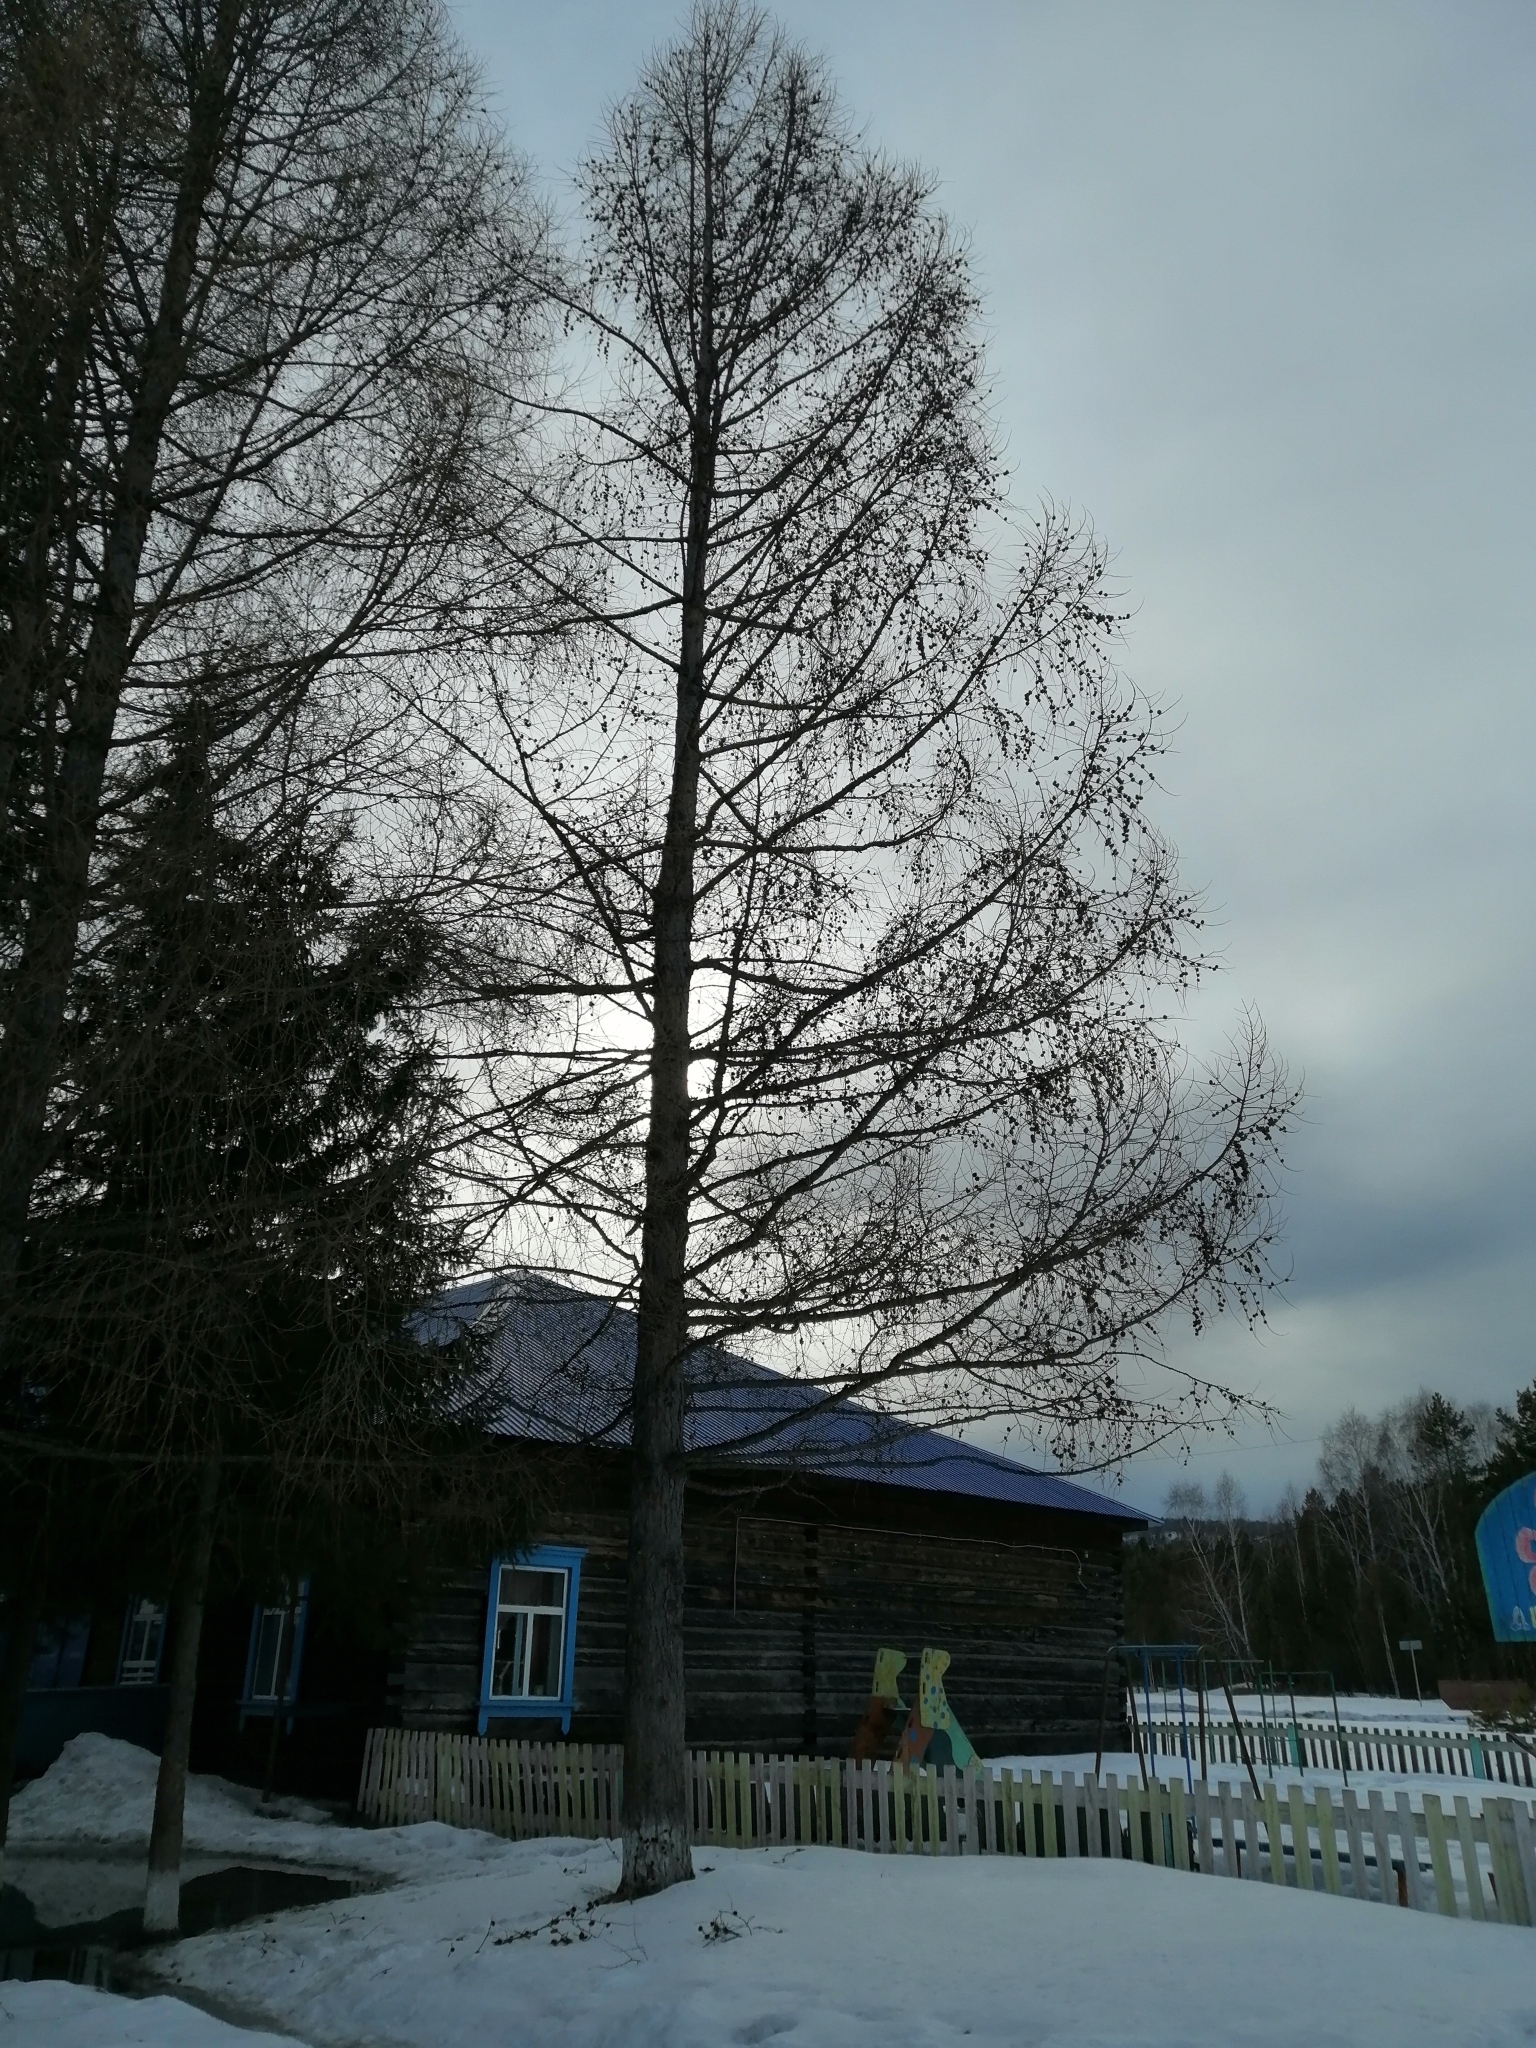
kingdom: Plantae
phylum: Tracheophyta
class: Pinopsida
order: Pinales
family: Pinaceae
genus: Larix
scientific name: Larix sibirica
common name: Siberian larch
